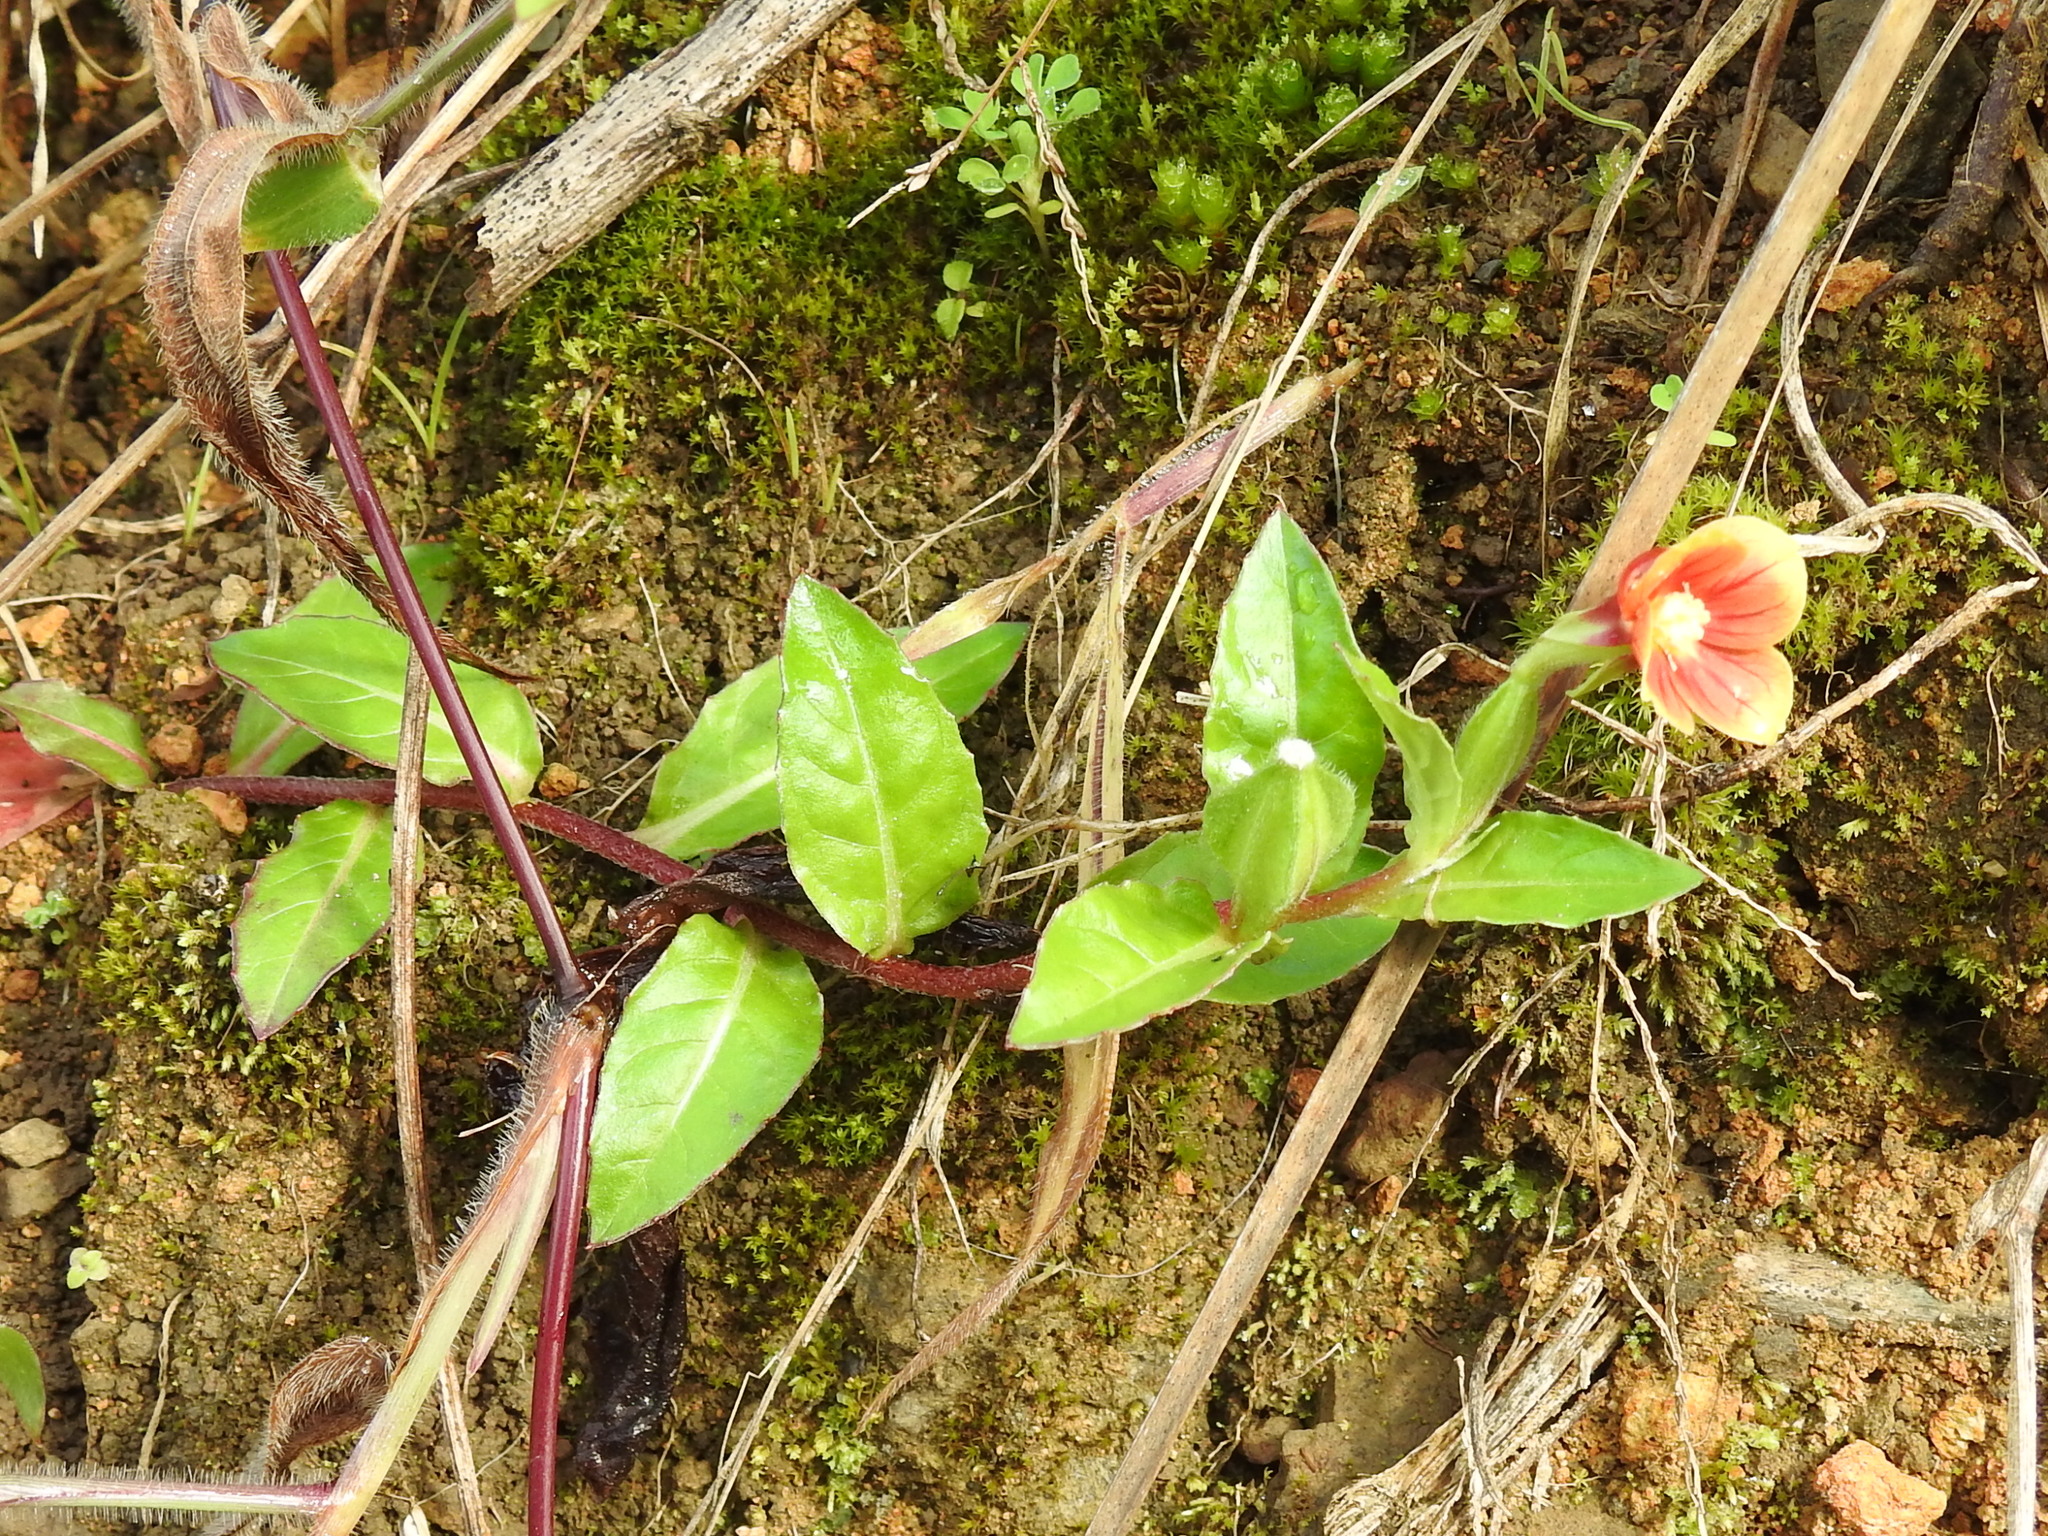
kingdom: Plantae
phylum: Tracheophyta
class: Magnoliopsida
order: Myrtales
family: Onagraceae
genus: Oenothera
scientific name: Oenothera epilobiifolia
